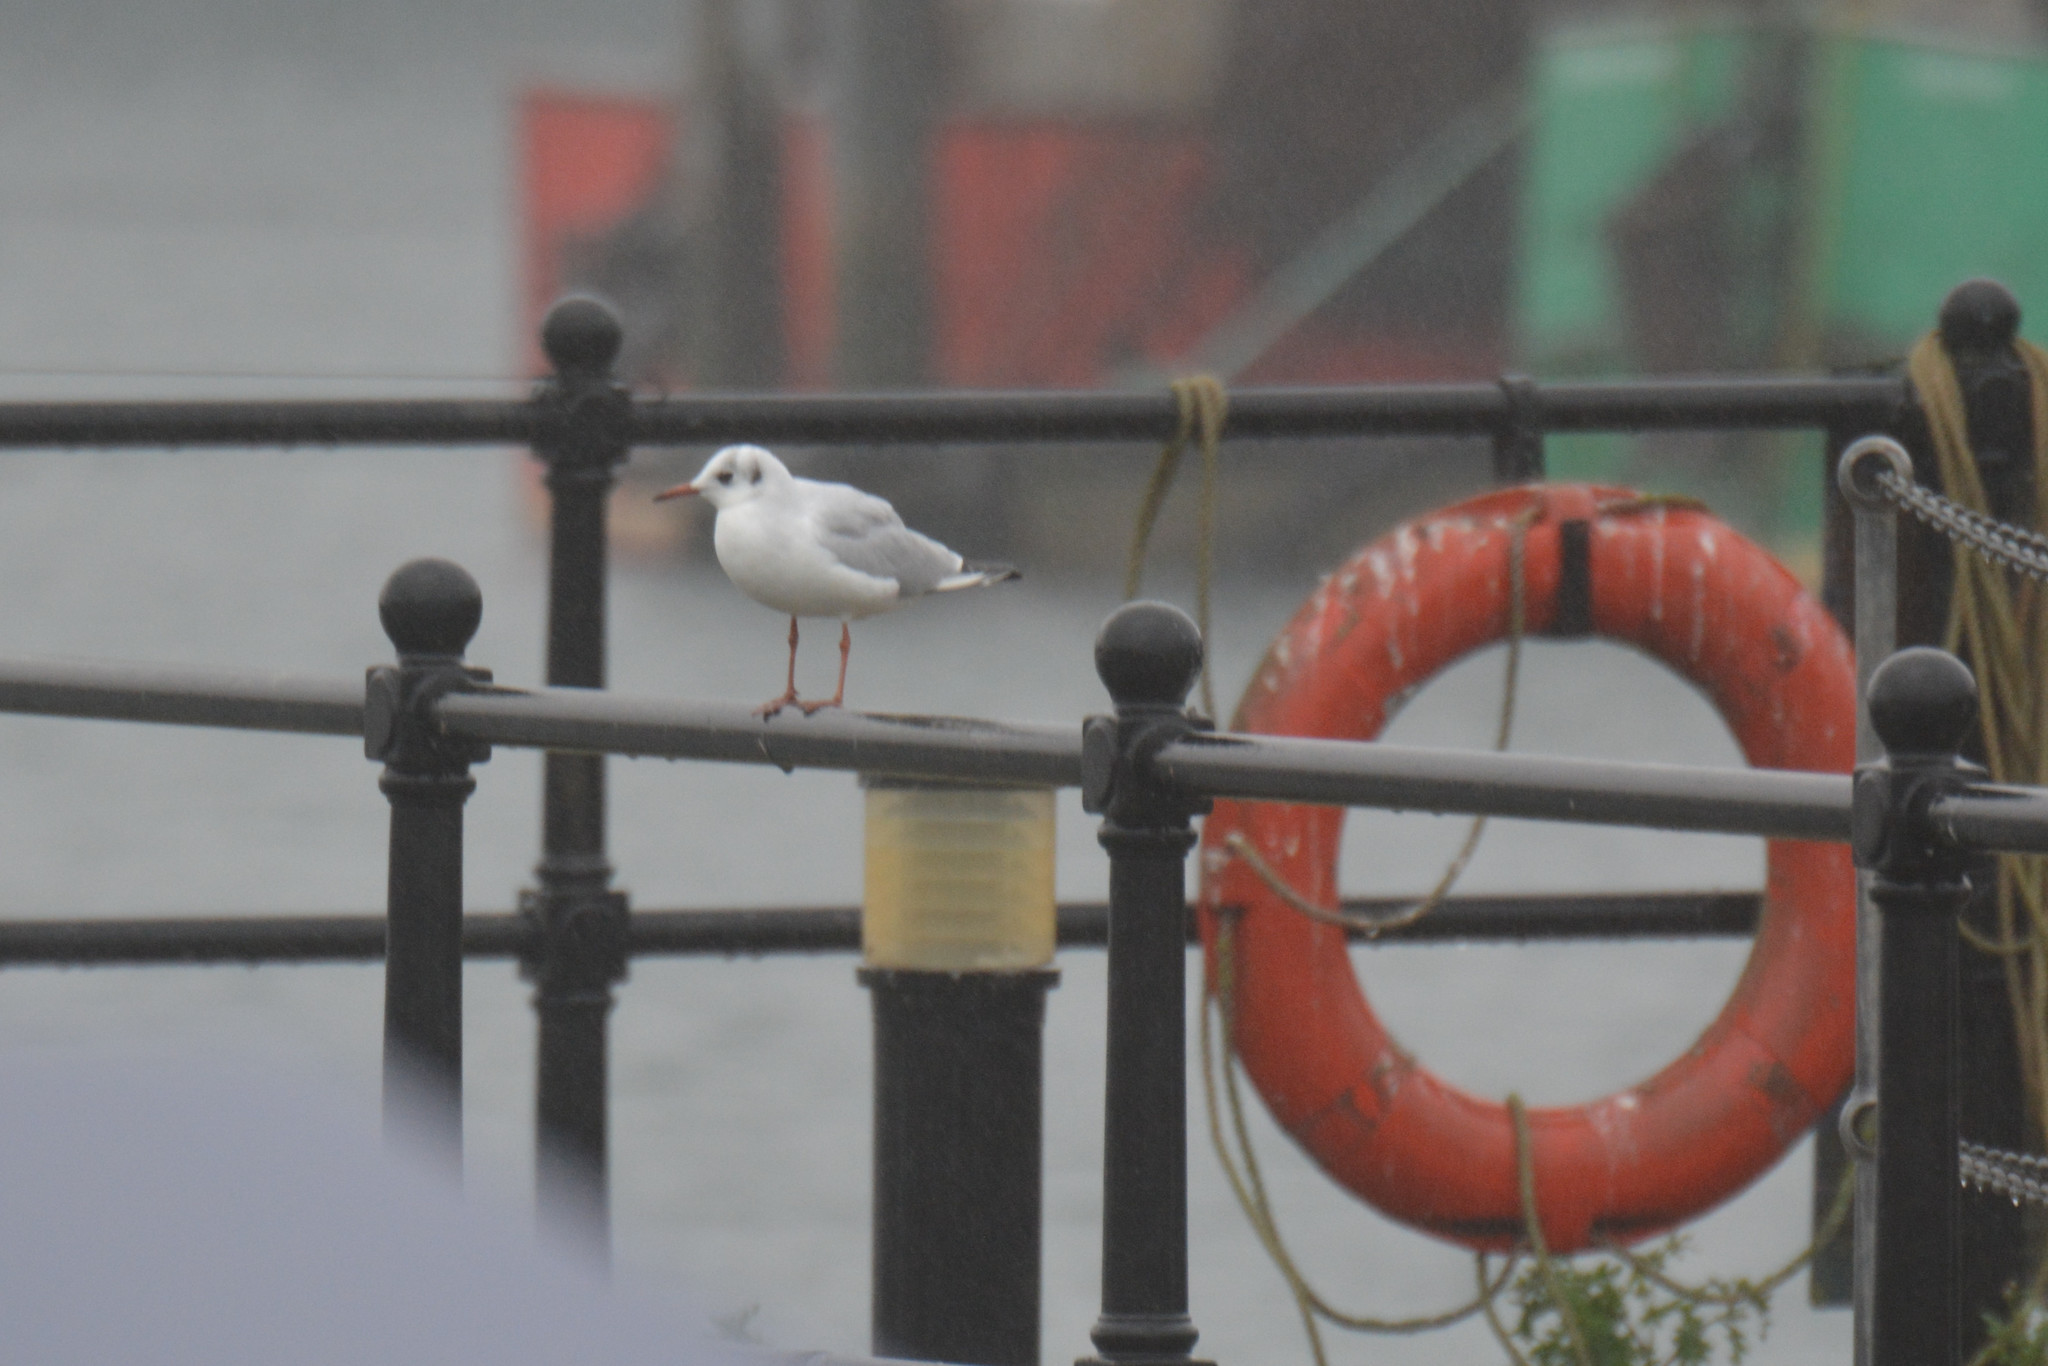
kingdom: Animalia
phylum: Chordata
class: Aves
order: Charadriiformes
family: Laridae
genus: Chroicocephalus
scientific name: Chroicocephalus ridibundus
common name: Black-headed gull
